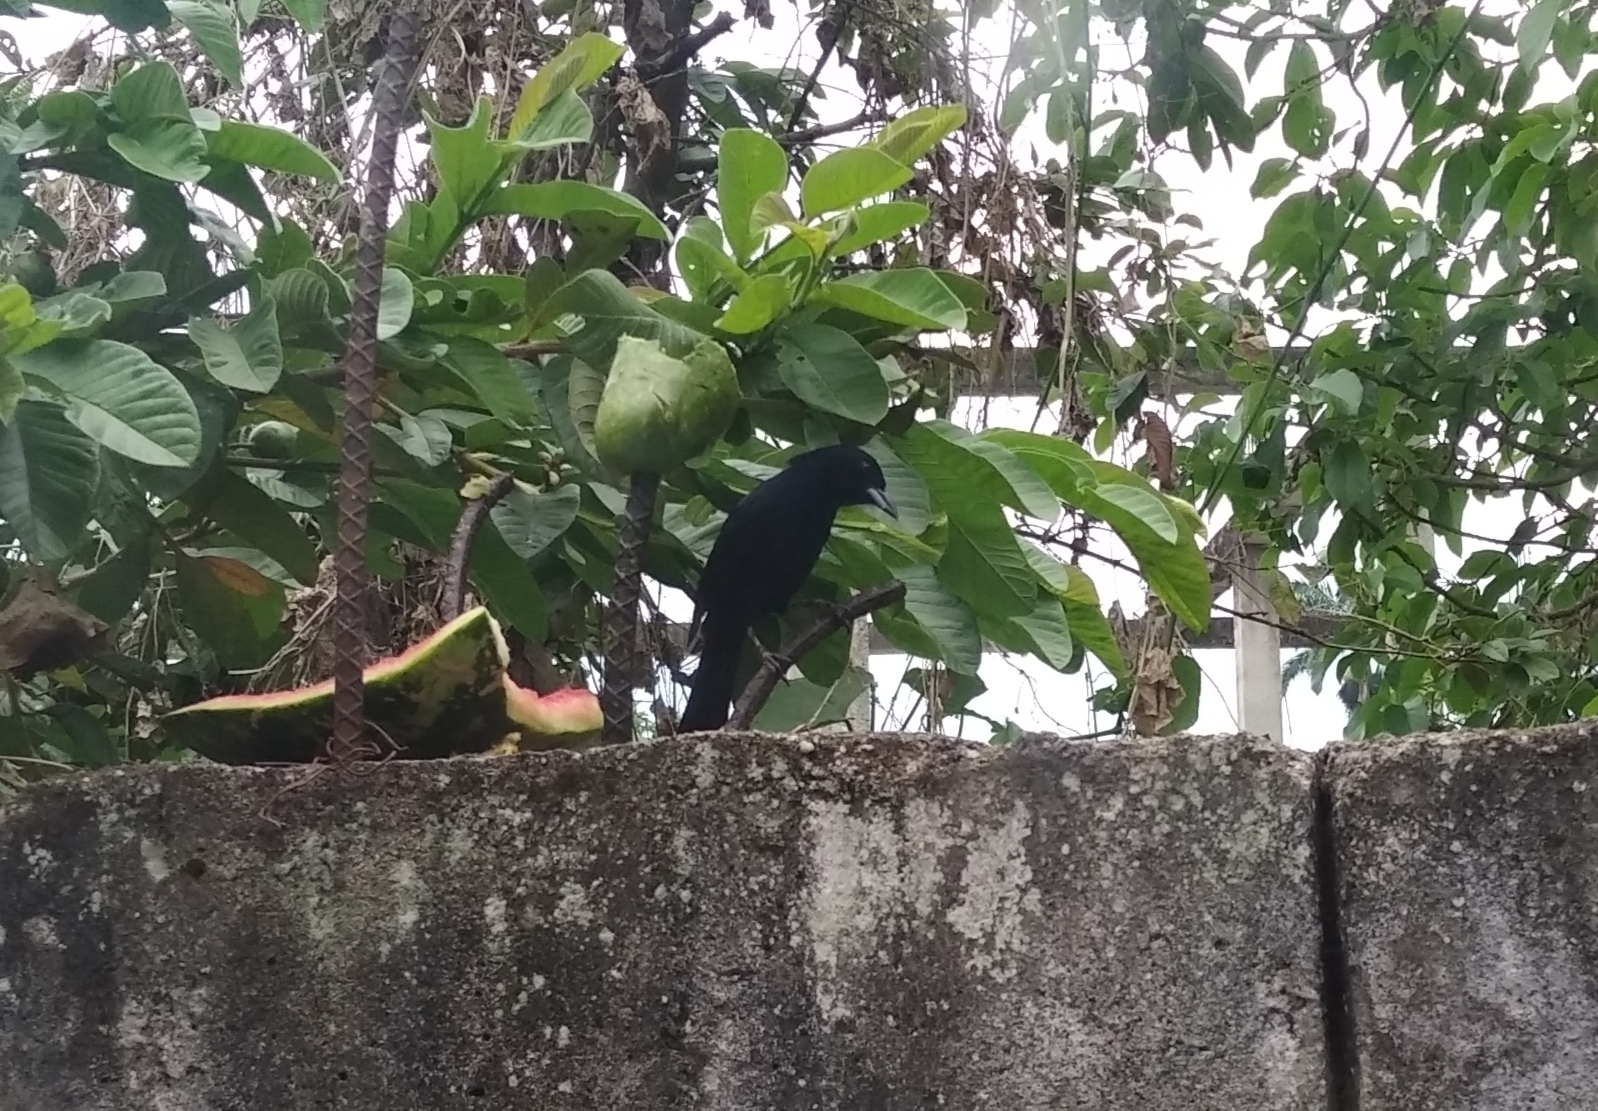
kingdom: Animalia
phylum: Chordata
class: Aves
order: Passeriformes
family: Thraupidae
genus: Tachyphonus
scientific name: Tachyphonus rufus
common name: White-lined tanager
